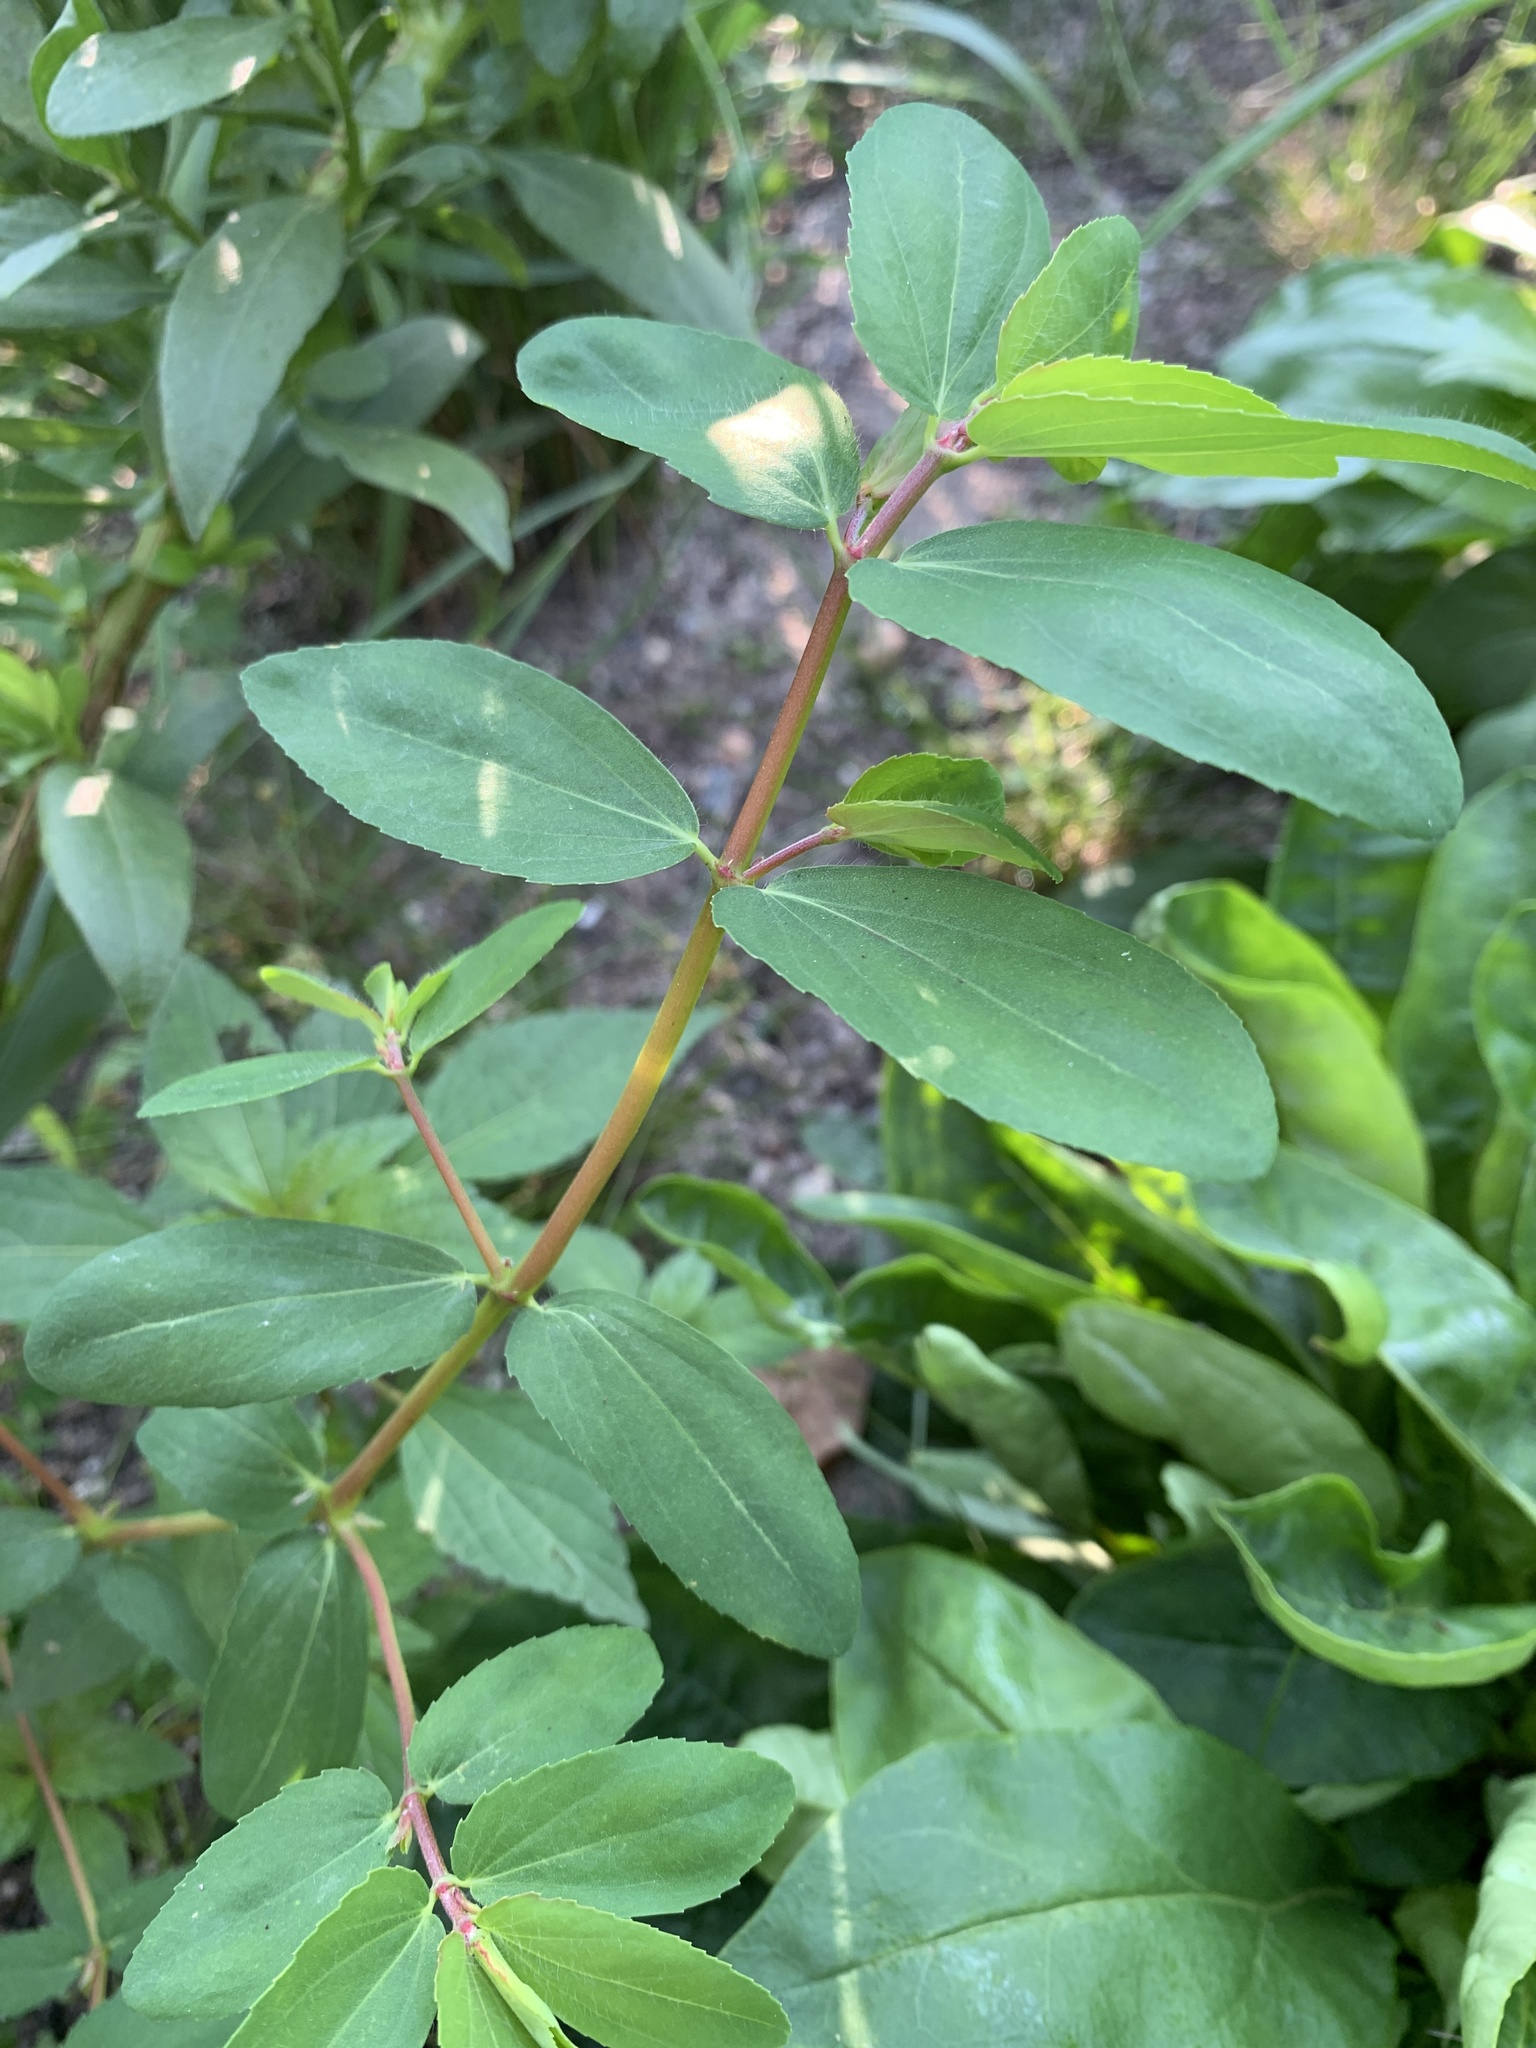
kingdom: Plantae
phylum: Tracheophyta
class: Magnoliopsida
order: Malpighiales
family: Euphorbiaceae
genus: Euphorbia
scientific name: Euphorbia nutans
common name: Eyebane
